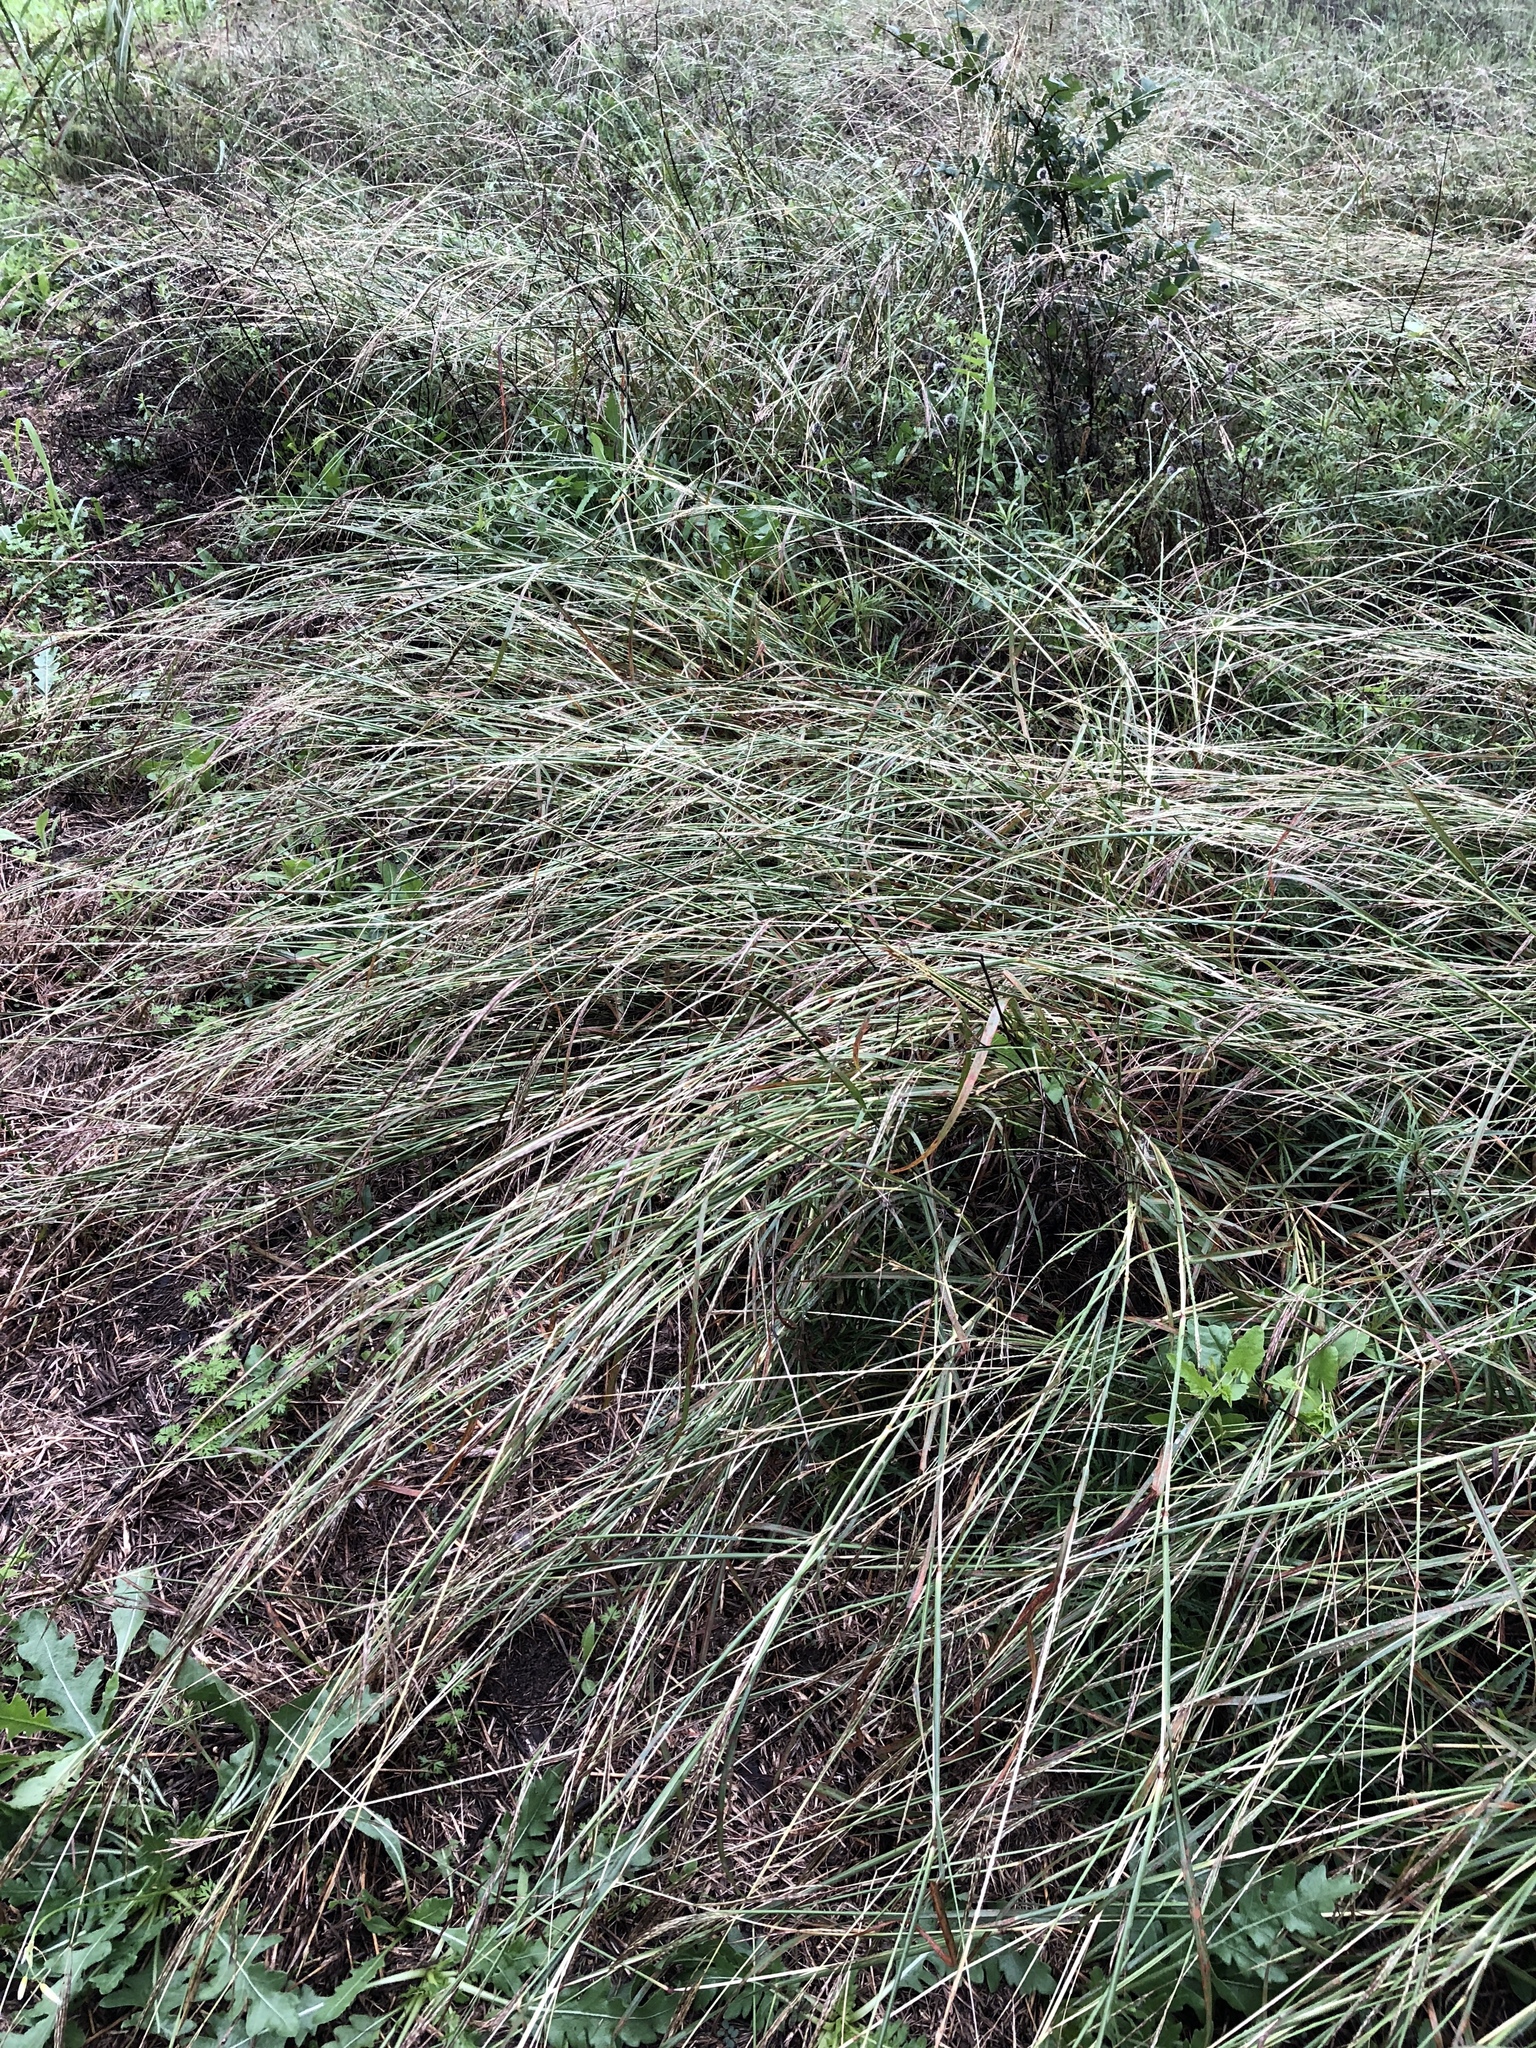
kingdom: Plantae
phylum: Tracheophyta
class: Liliopsida
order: Poales
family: Poaceae
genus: Bothriochloa
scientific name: Bothriochloa ischaemum
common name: Yellow bluestem
